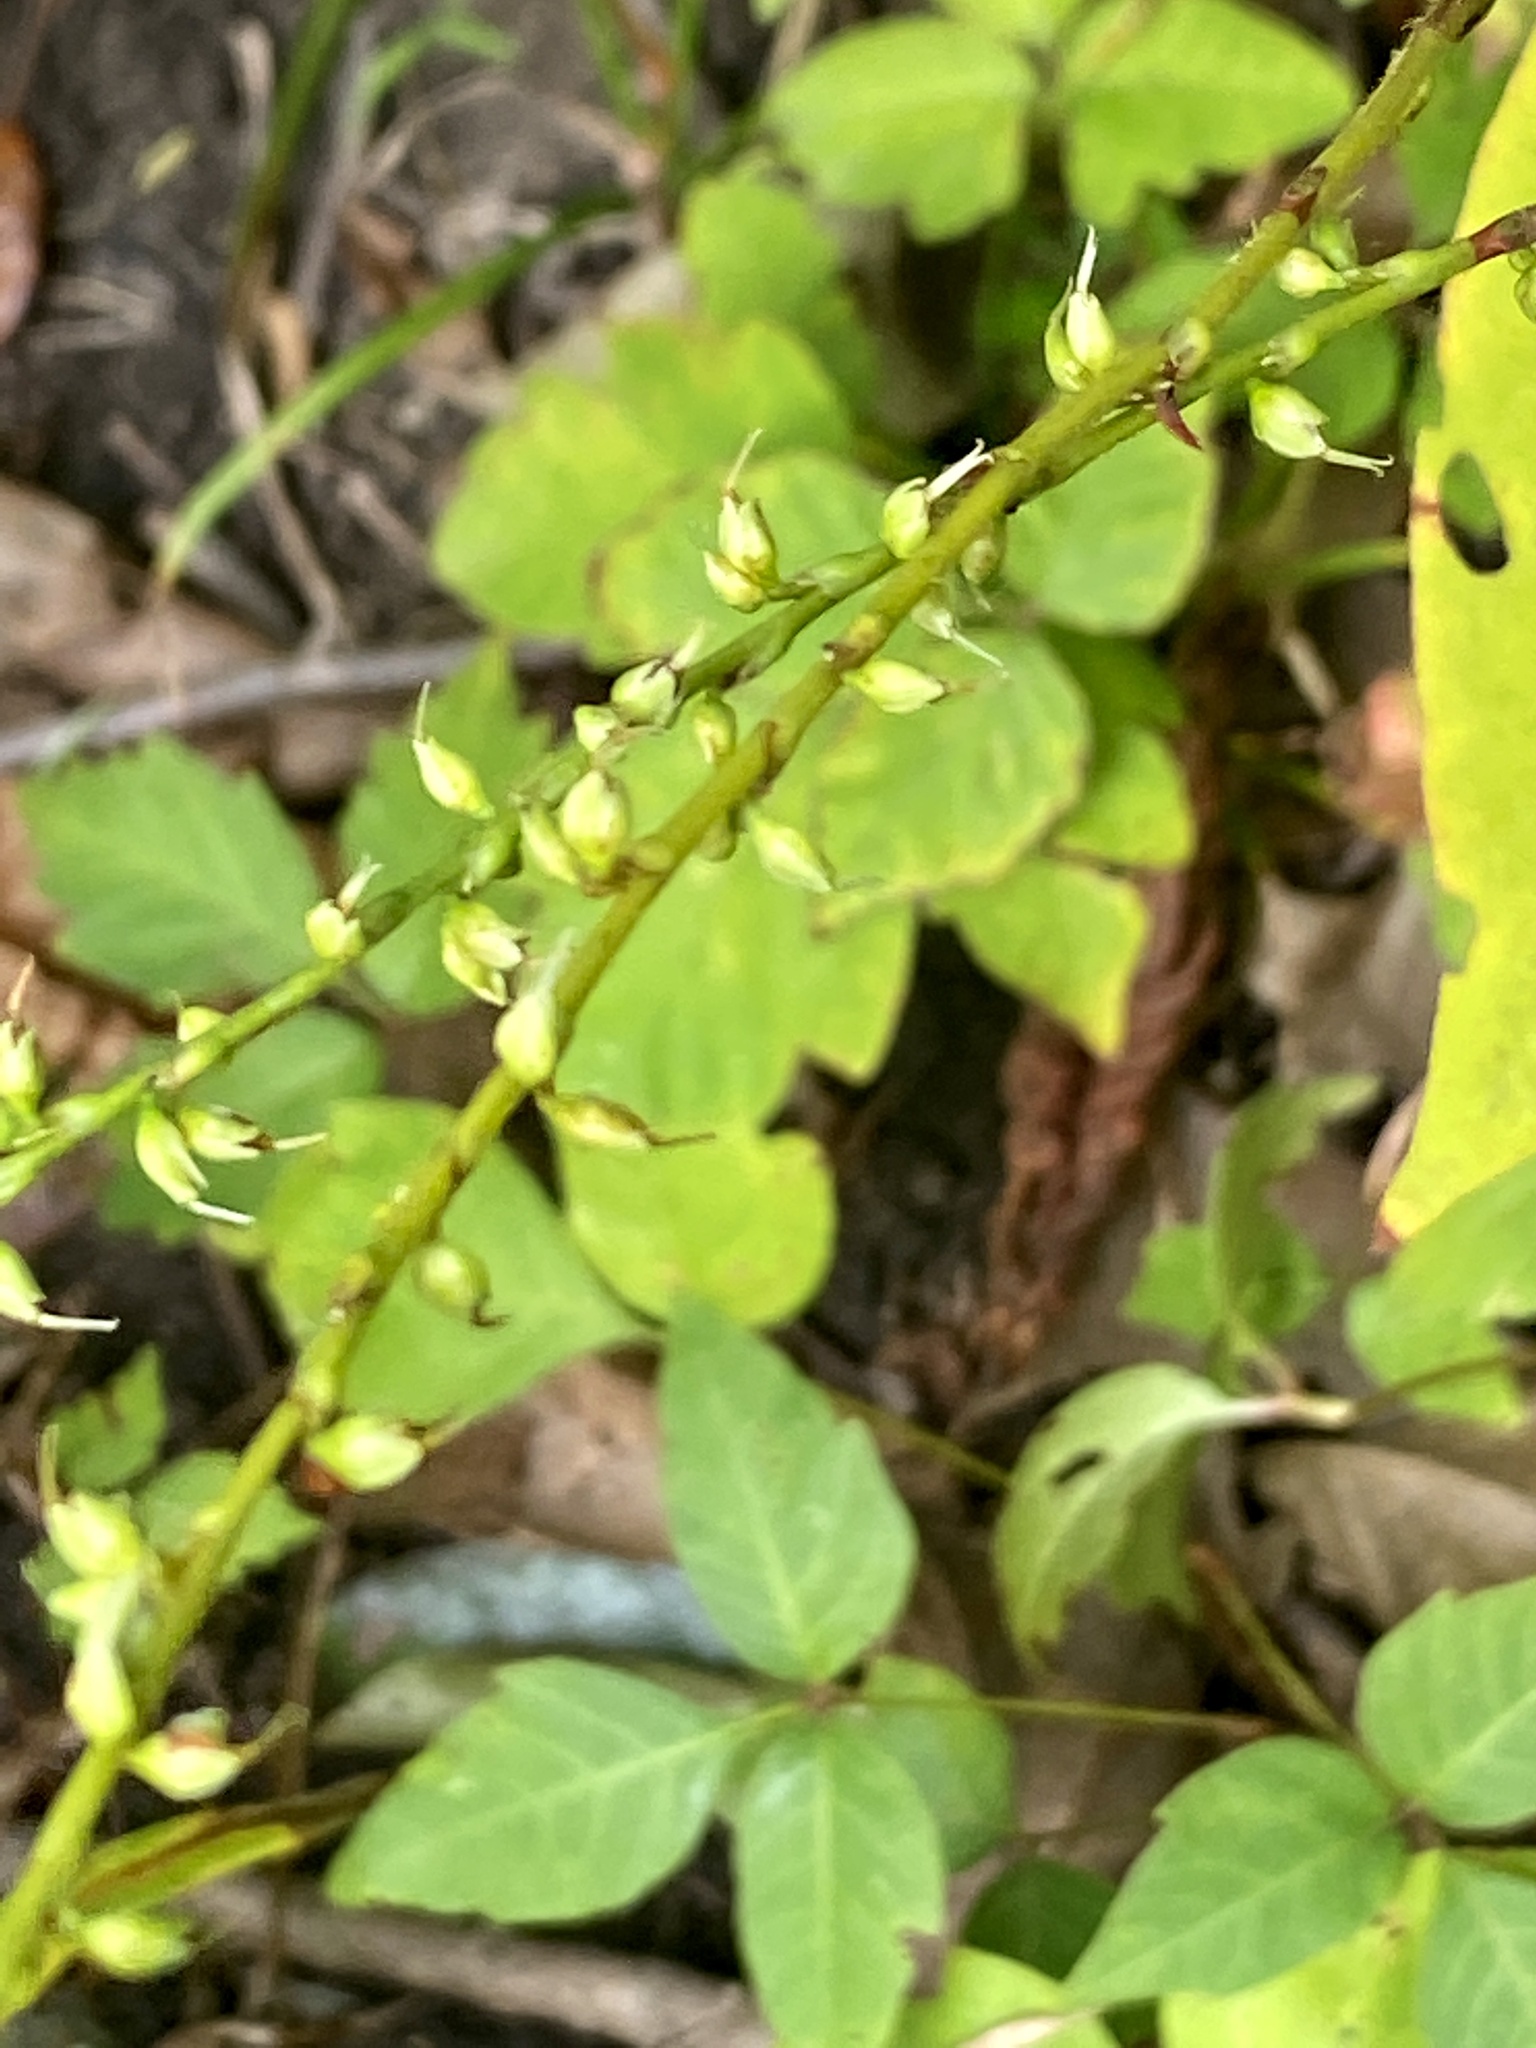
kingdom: Plantae
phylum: Tracheophyta
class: Magnoliopsida
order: Caryophyllales
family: Polygonaceae
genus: Persicaria
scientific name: Persicaria virginiana
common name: Jumpseed
